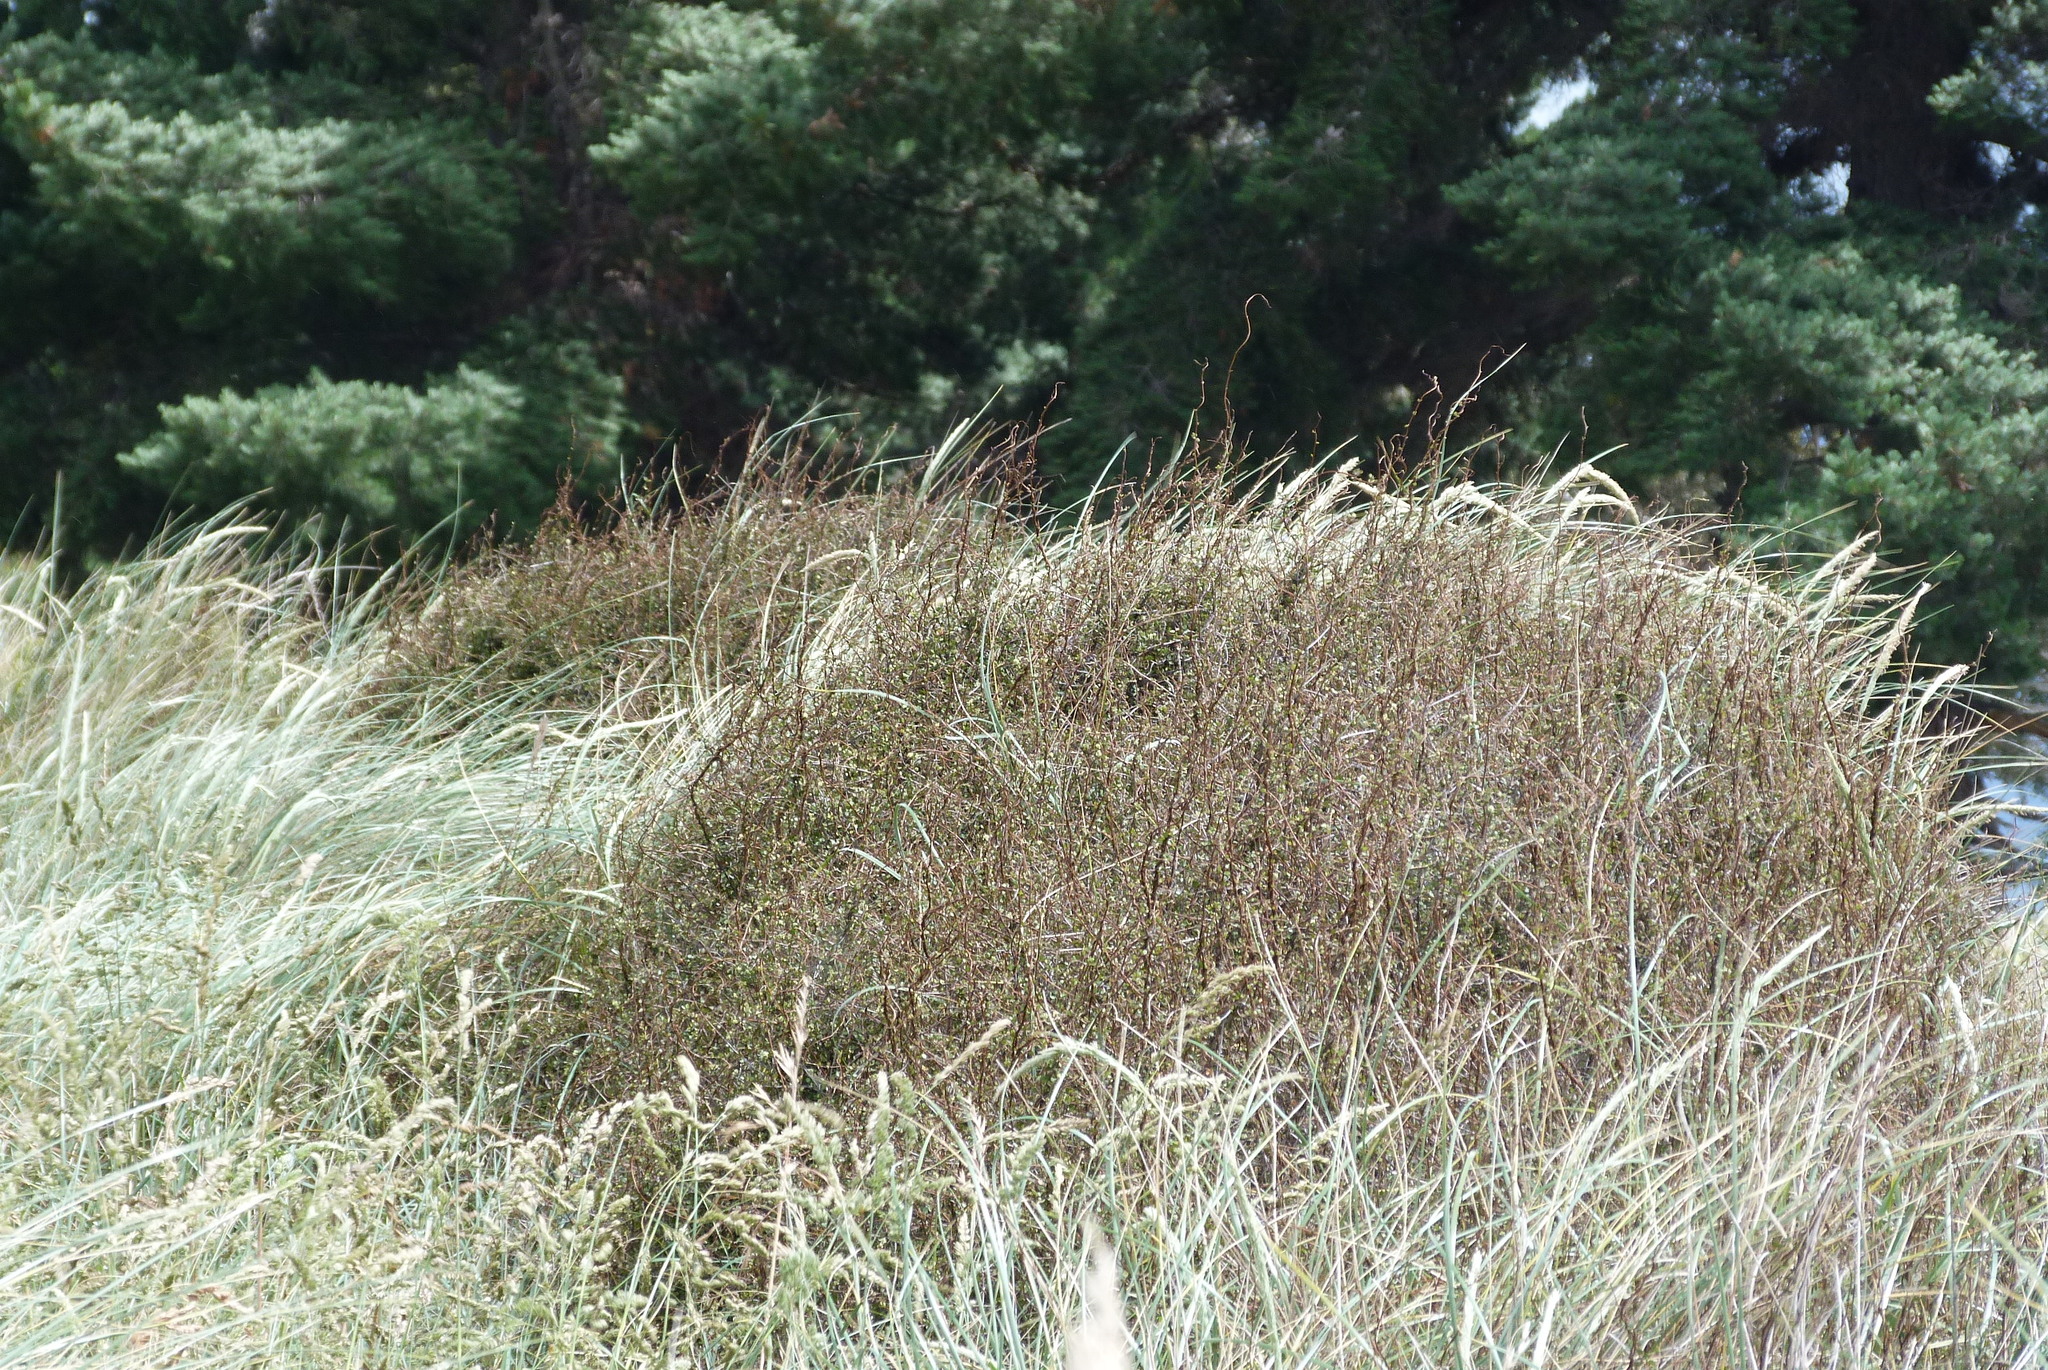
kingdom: Plantae
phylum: Tracheophyta
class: Magnoliopsida
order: Caryophyllales
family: Polygonaceae
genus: Muehlenbeckia
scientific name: Muehlenbeckia complexa
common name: Wireplant
